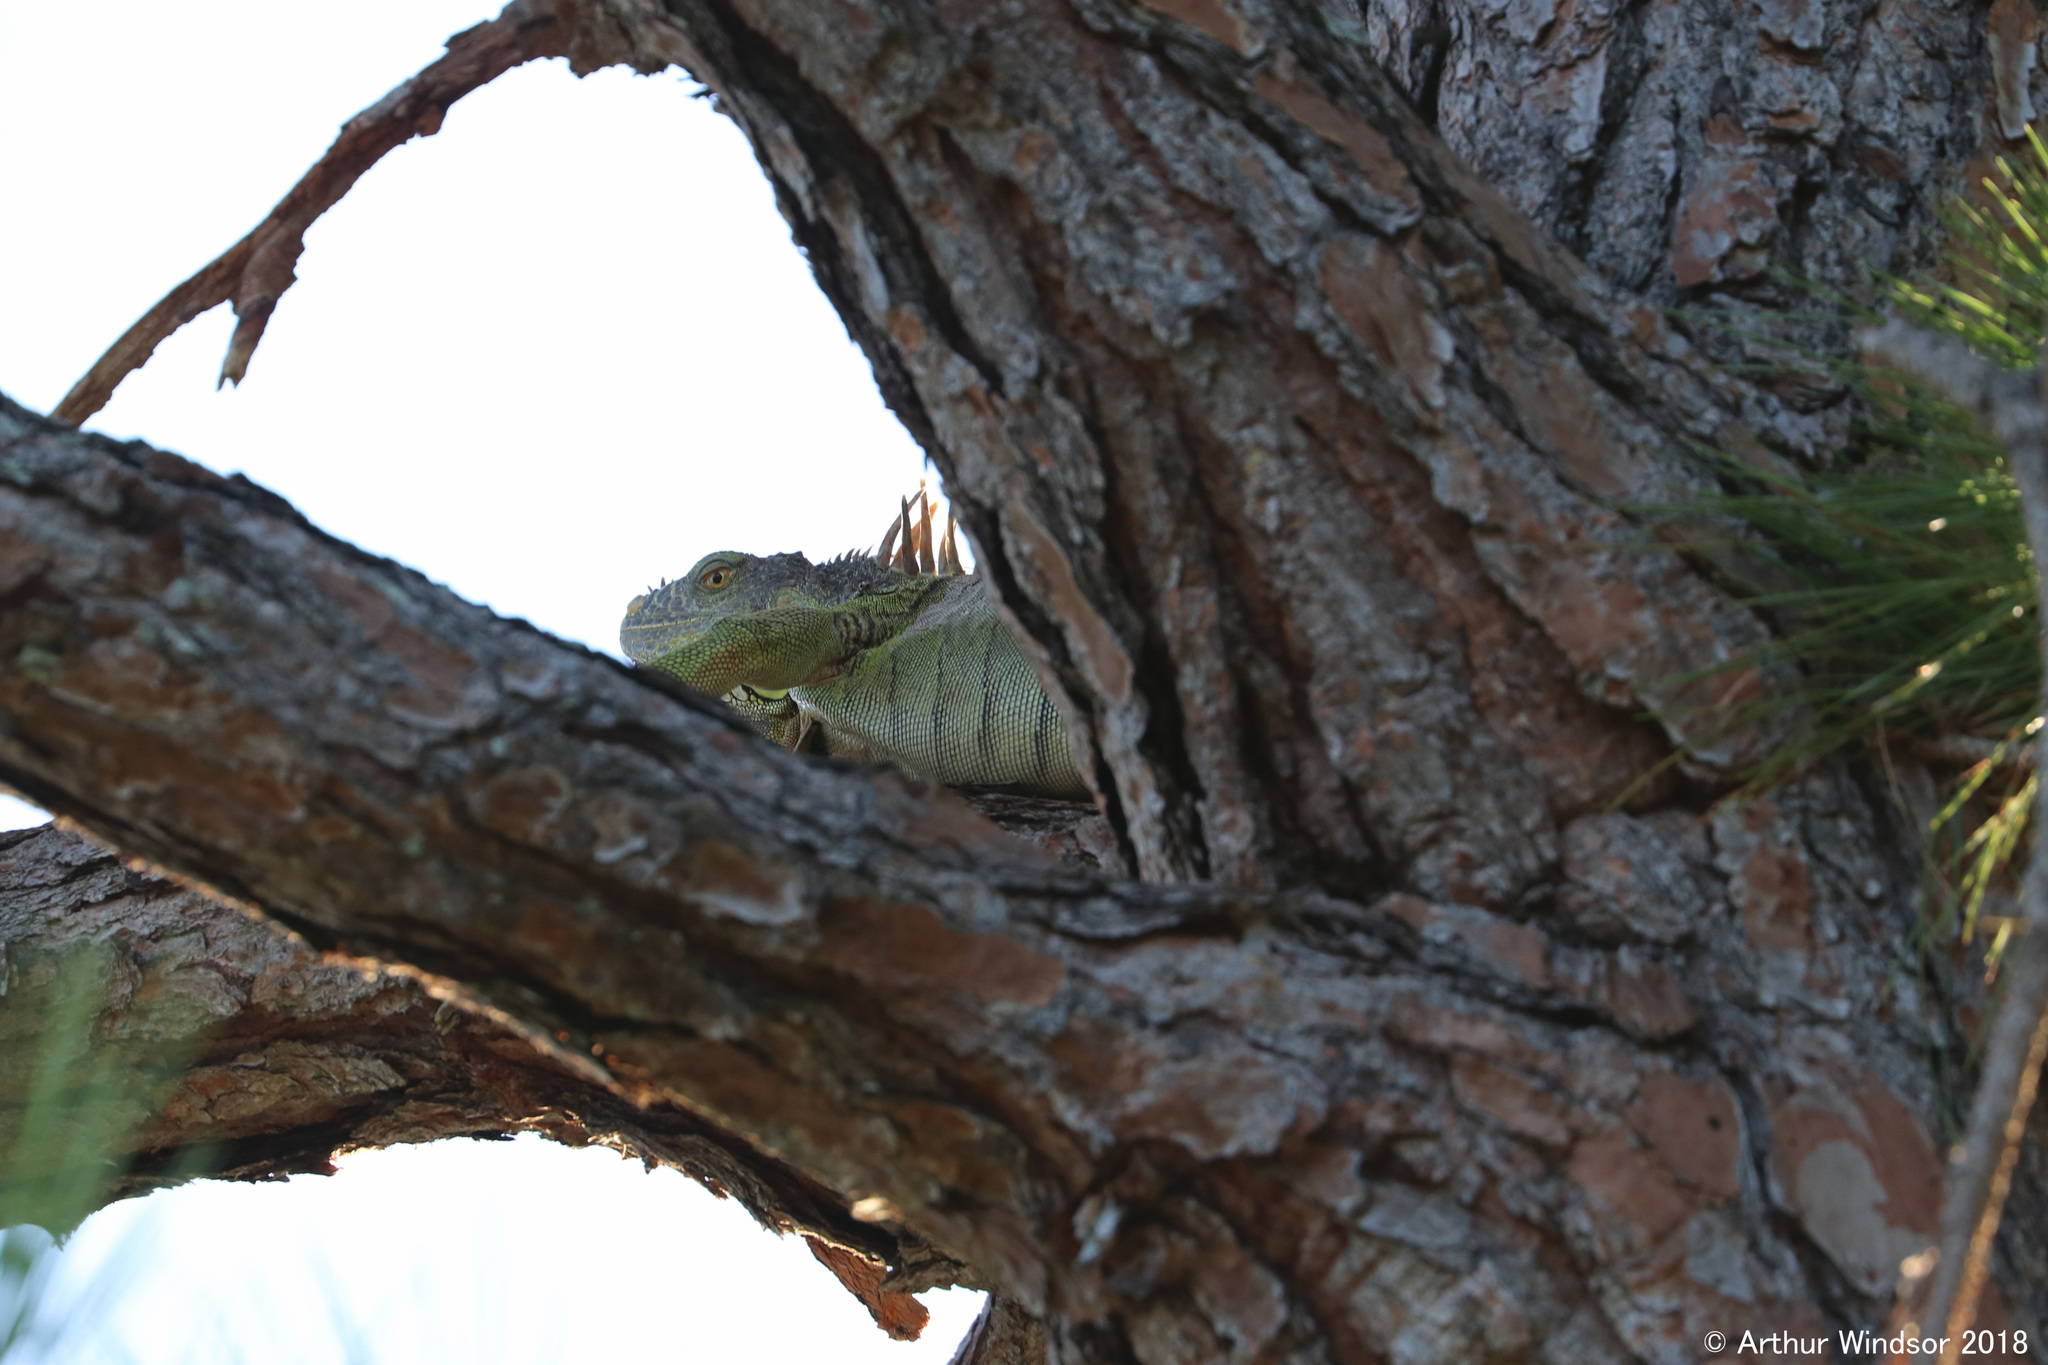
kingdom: Animalia
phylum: Chordata
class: Squamata
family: Iguanidae
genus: Iguana
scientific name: Iguana iguana
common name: Green iguana
